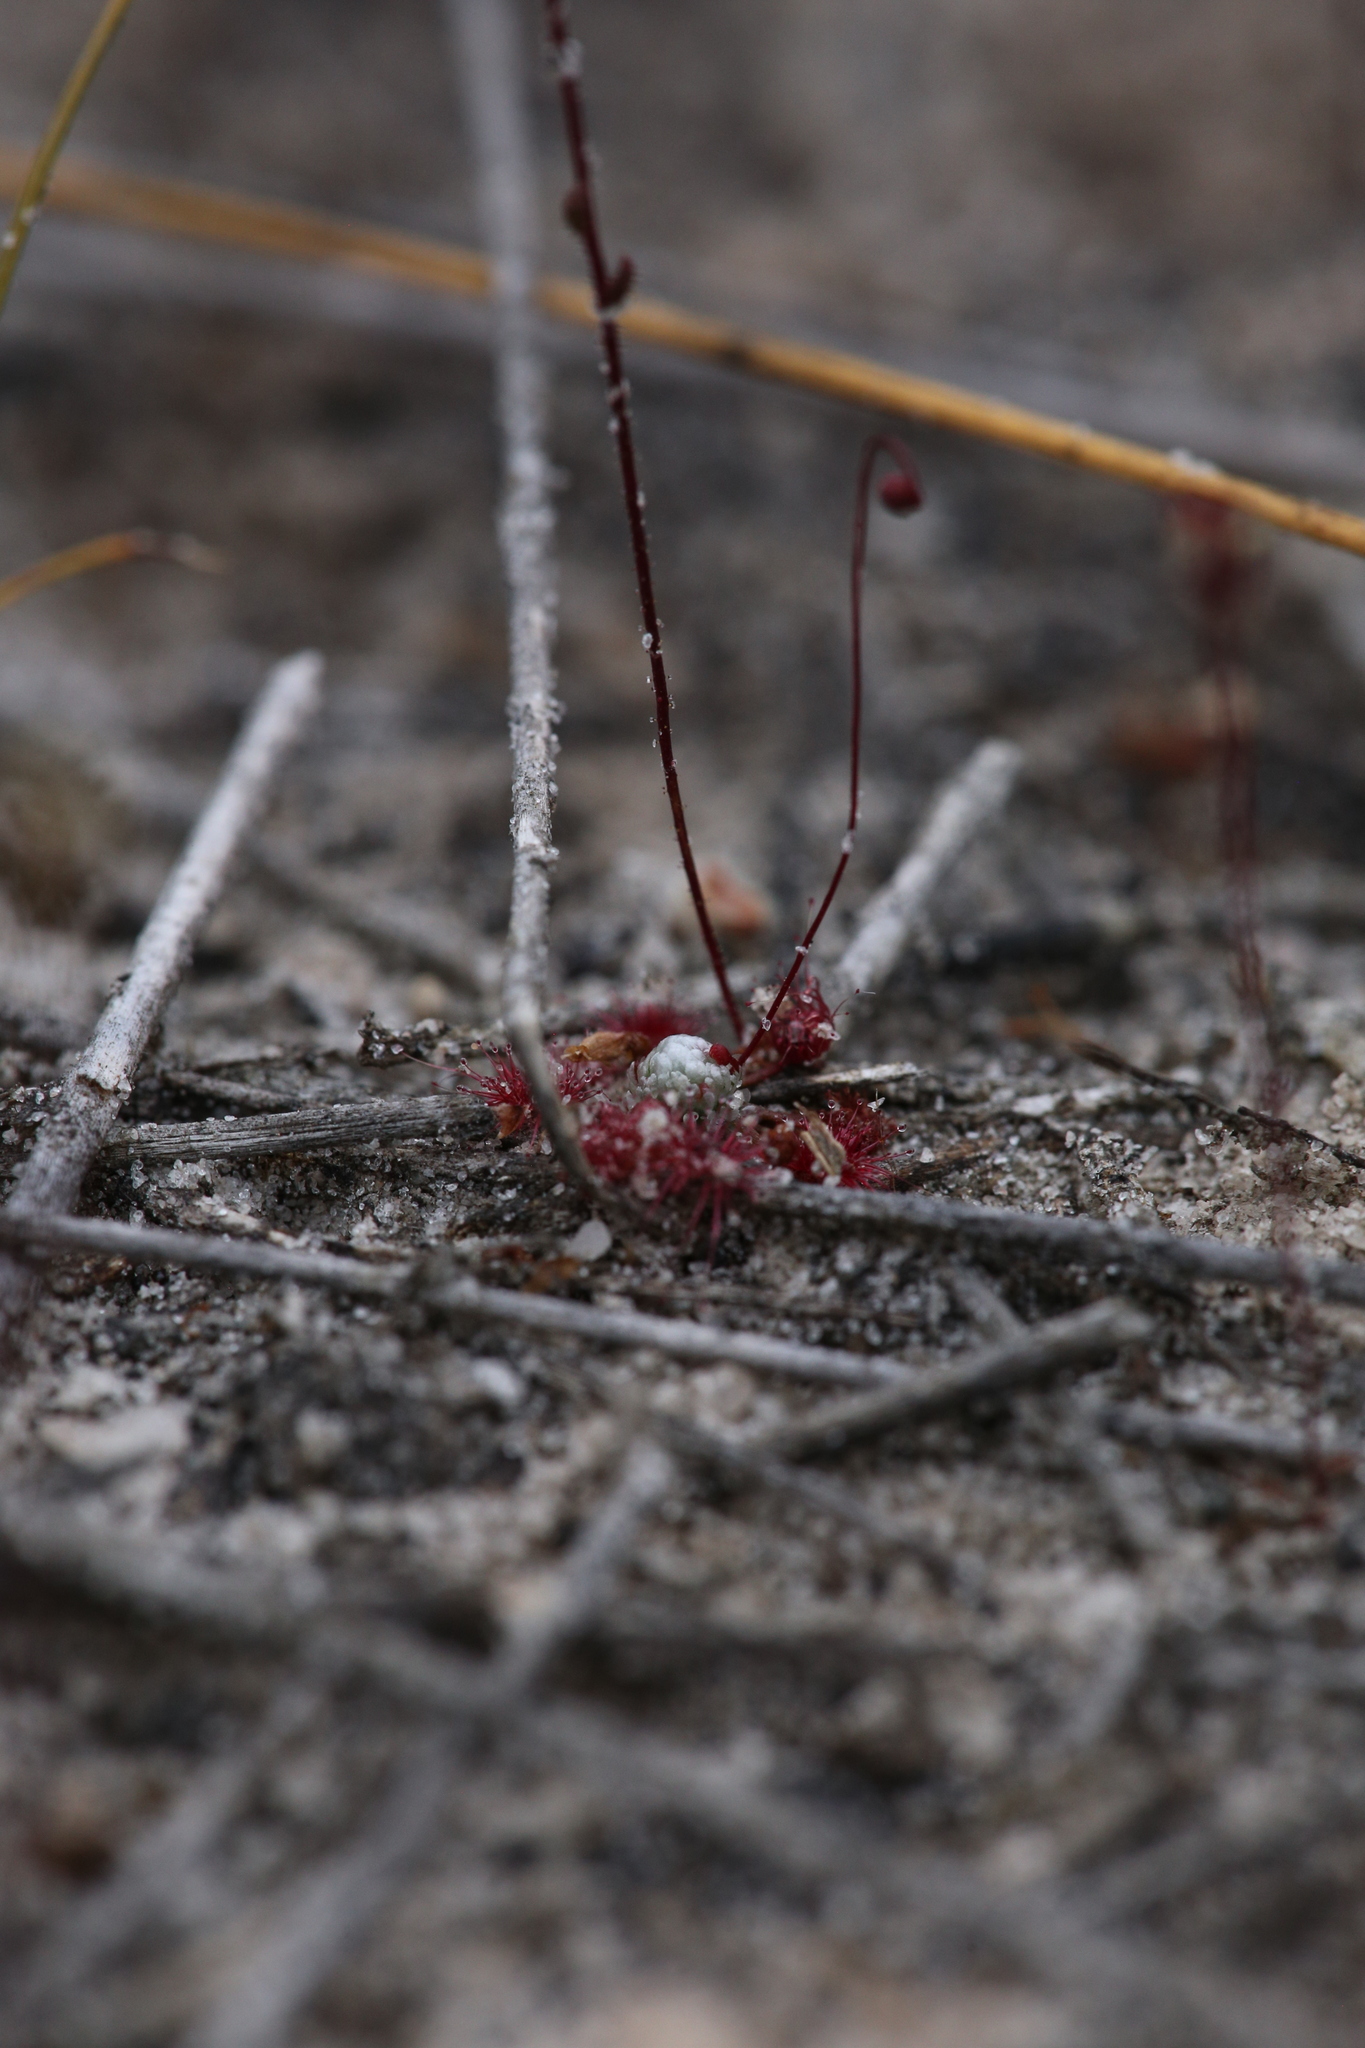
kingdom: Plantae
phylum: Tracheophyta
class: Magnoliopsida
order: Caryophyllales
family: Droseraceae
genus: Drosera
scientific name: Drosera occidentalis
